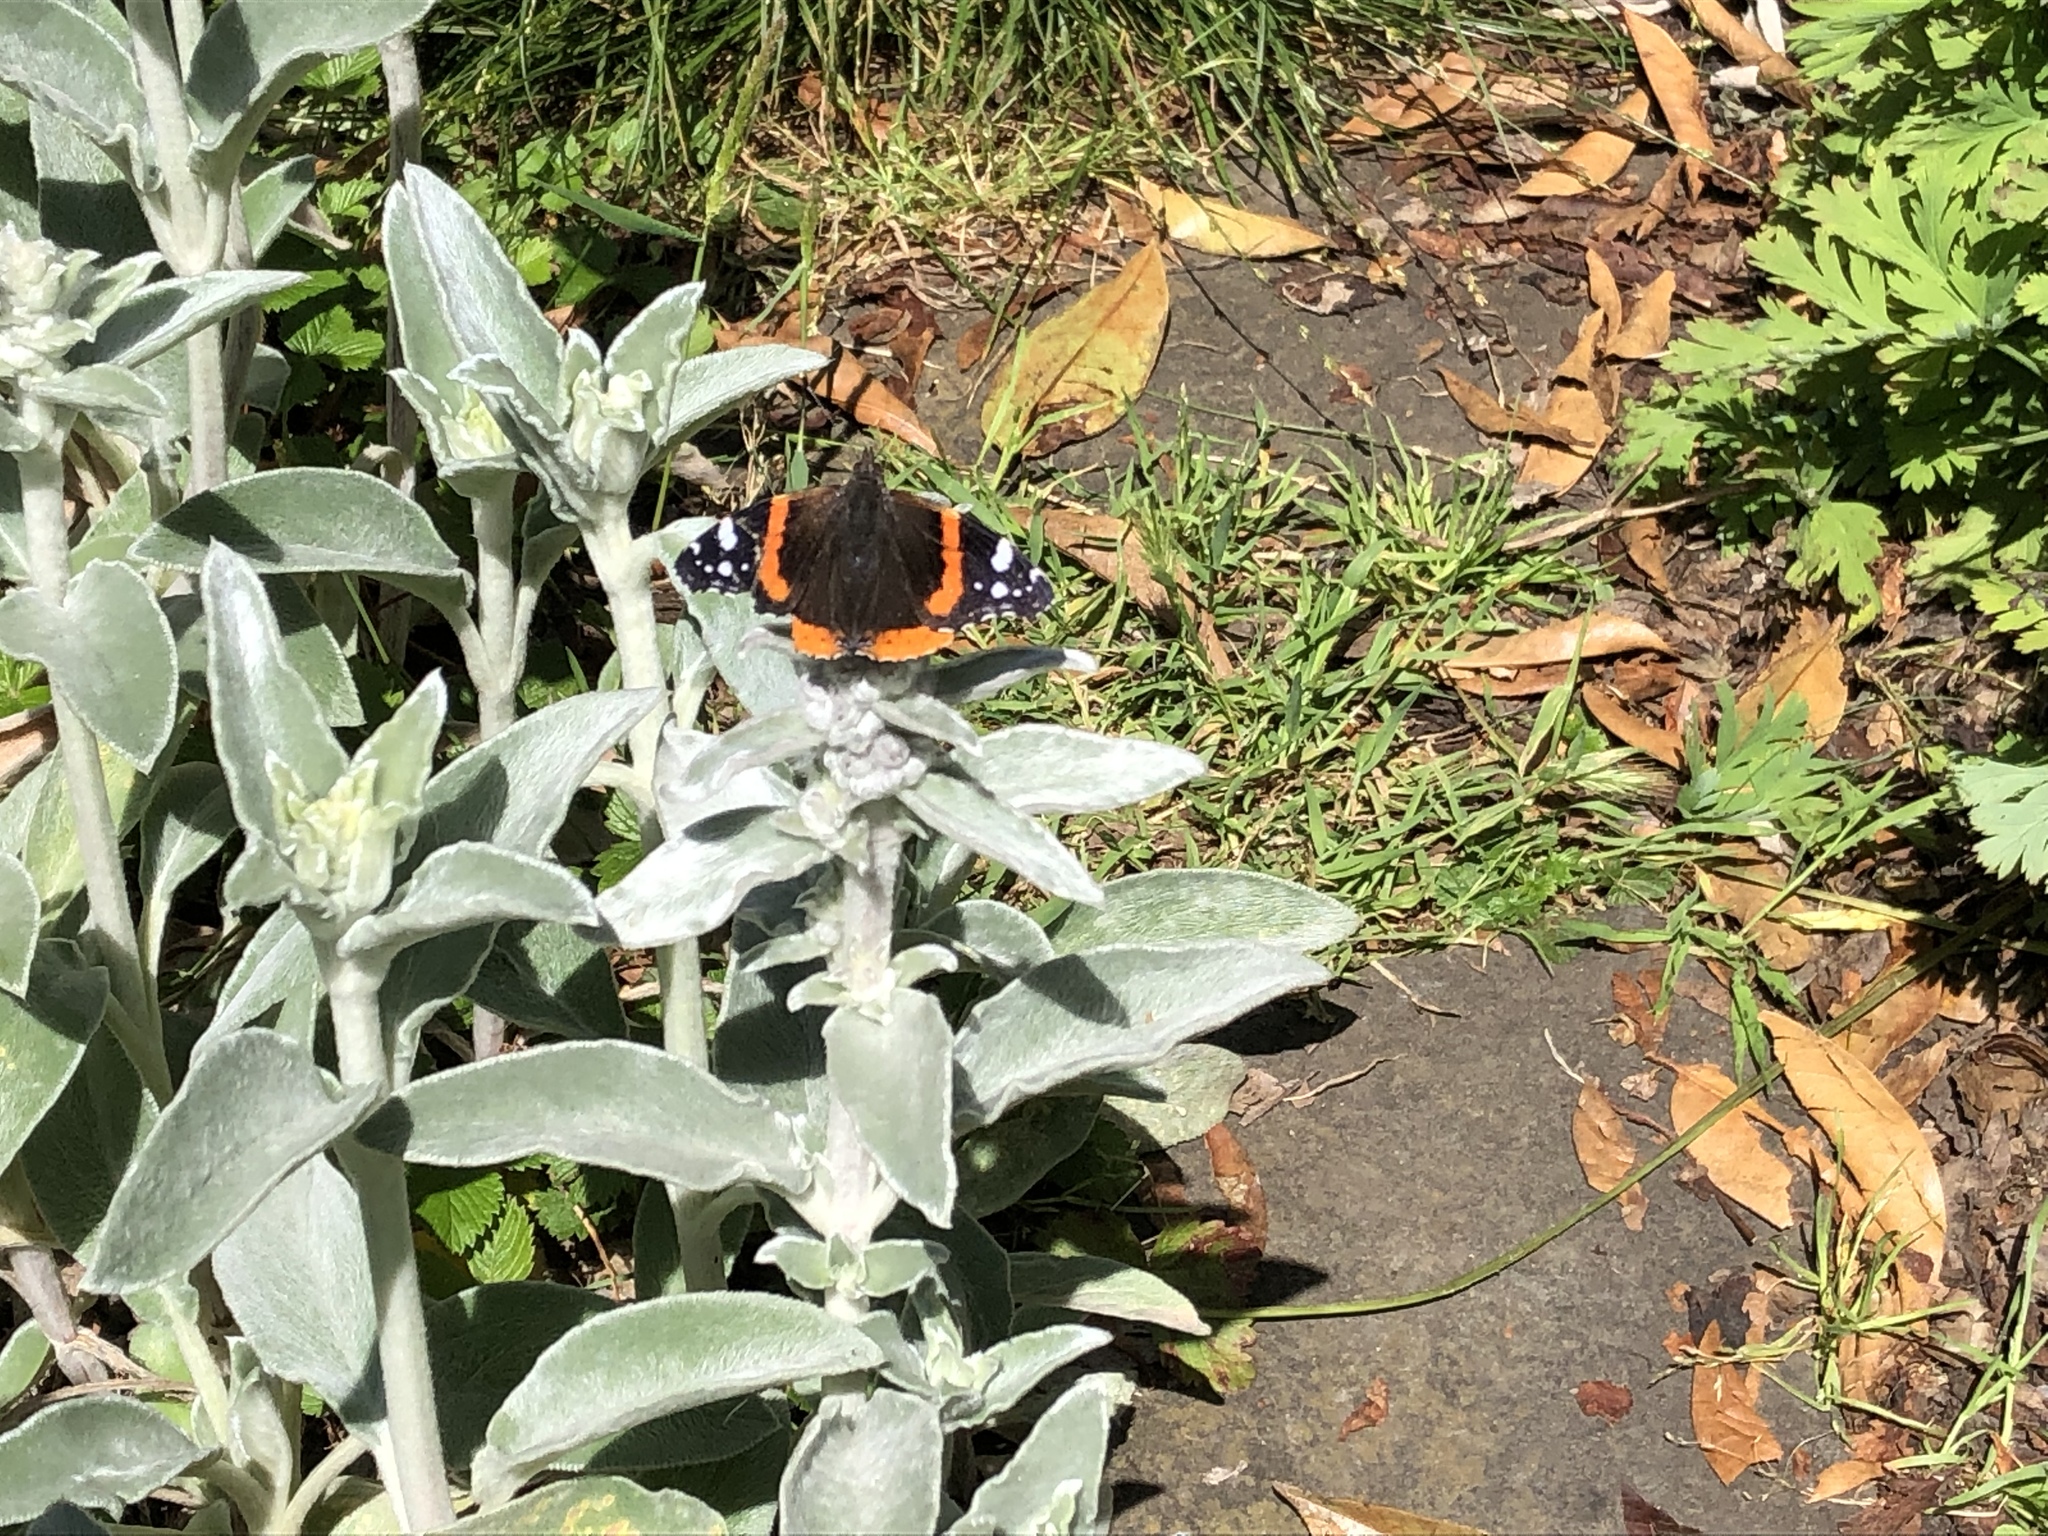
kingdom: Animalia
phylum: Arthropoda
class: Insecta
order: Lepidoptera
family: Nymphalidae
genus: Vanessa
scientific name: Vanessa atalanta
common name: Red admiral
